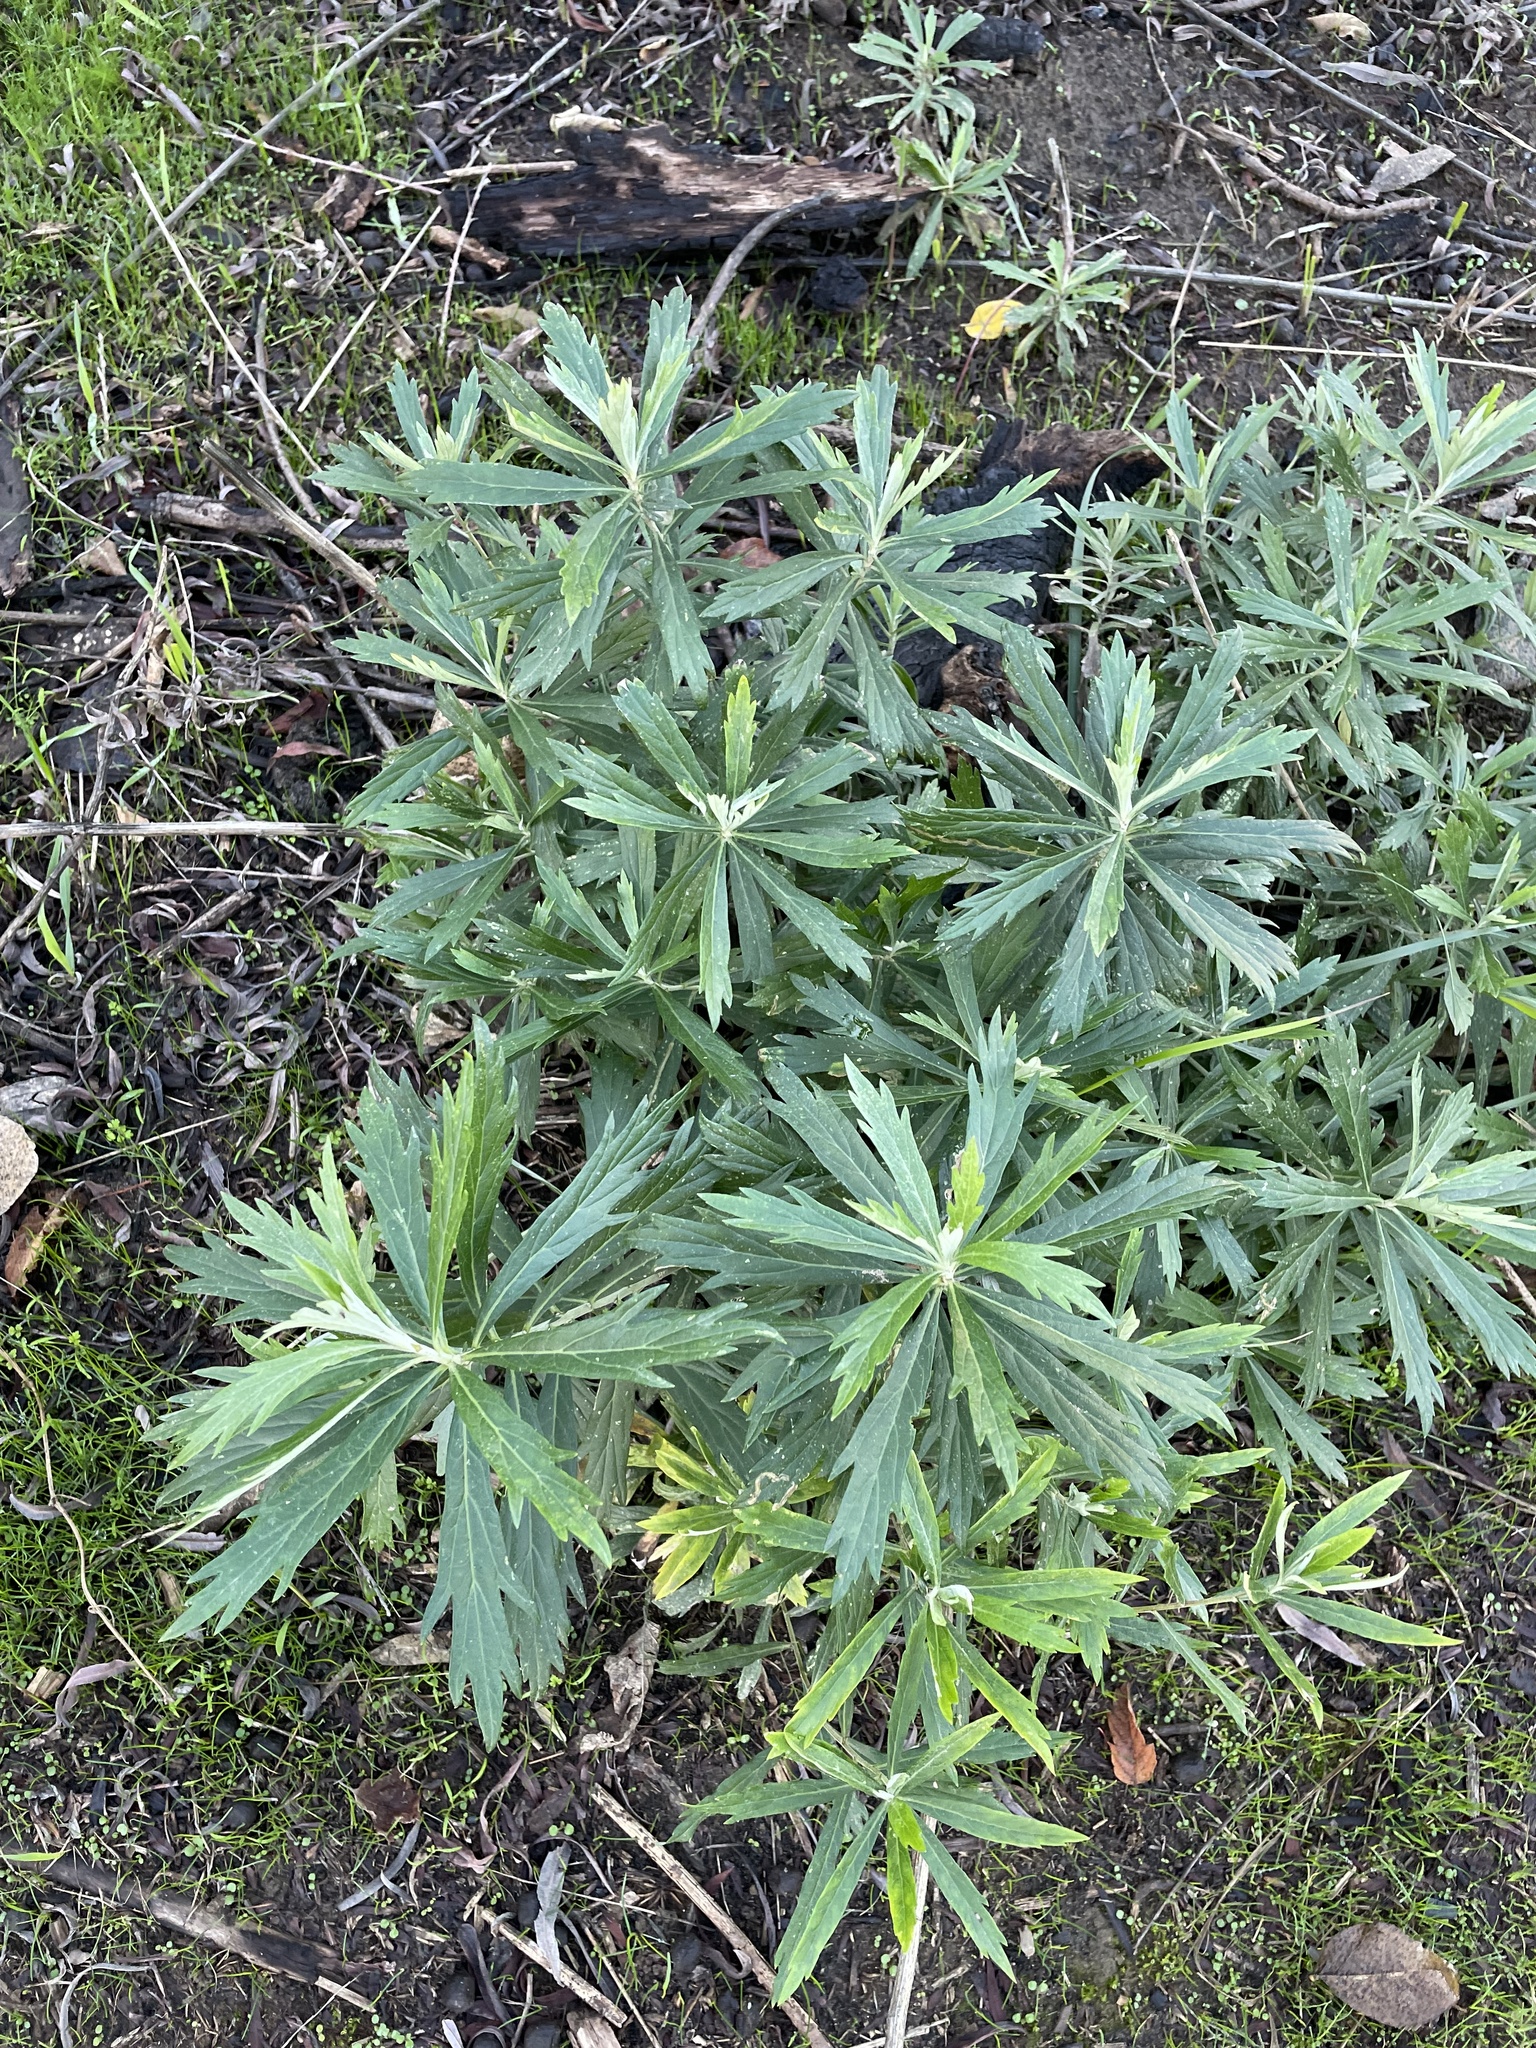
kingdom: Plantae
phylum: Tracheophyta
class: Magnoliopsida
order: Asterales
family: Asteraceae
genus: Artemisia
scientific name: Artemisia douglasiana
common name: Northwest mugwort
